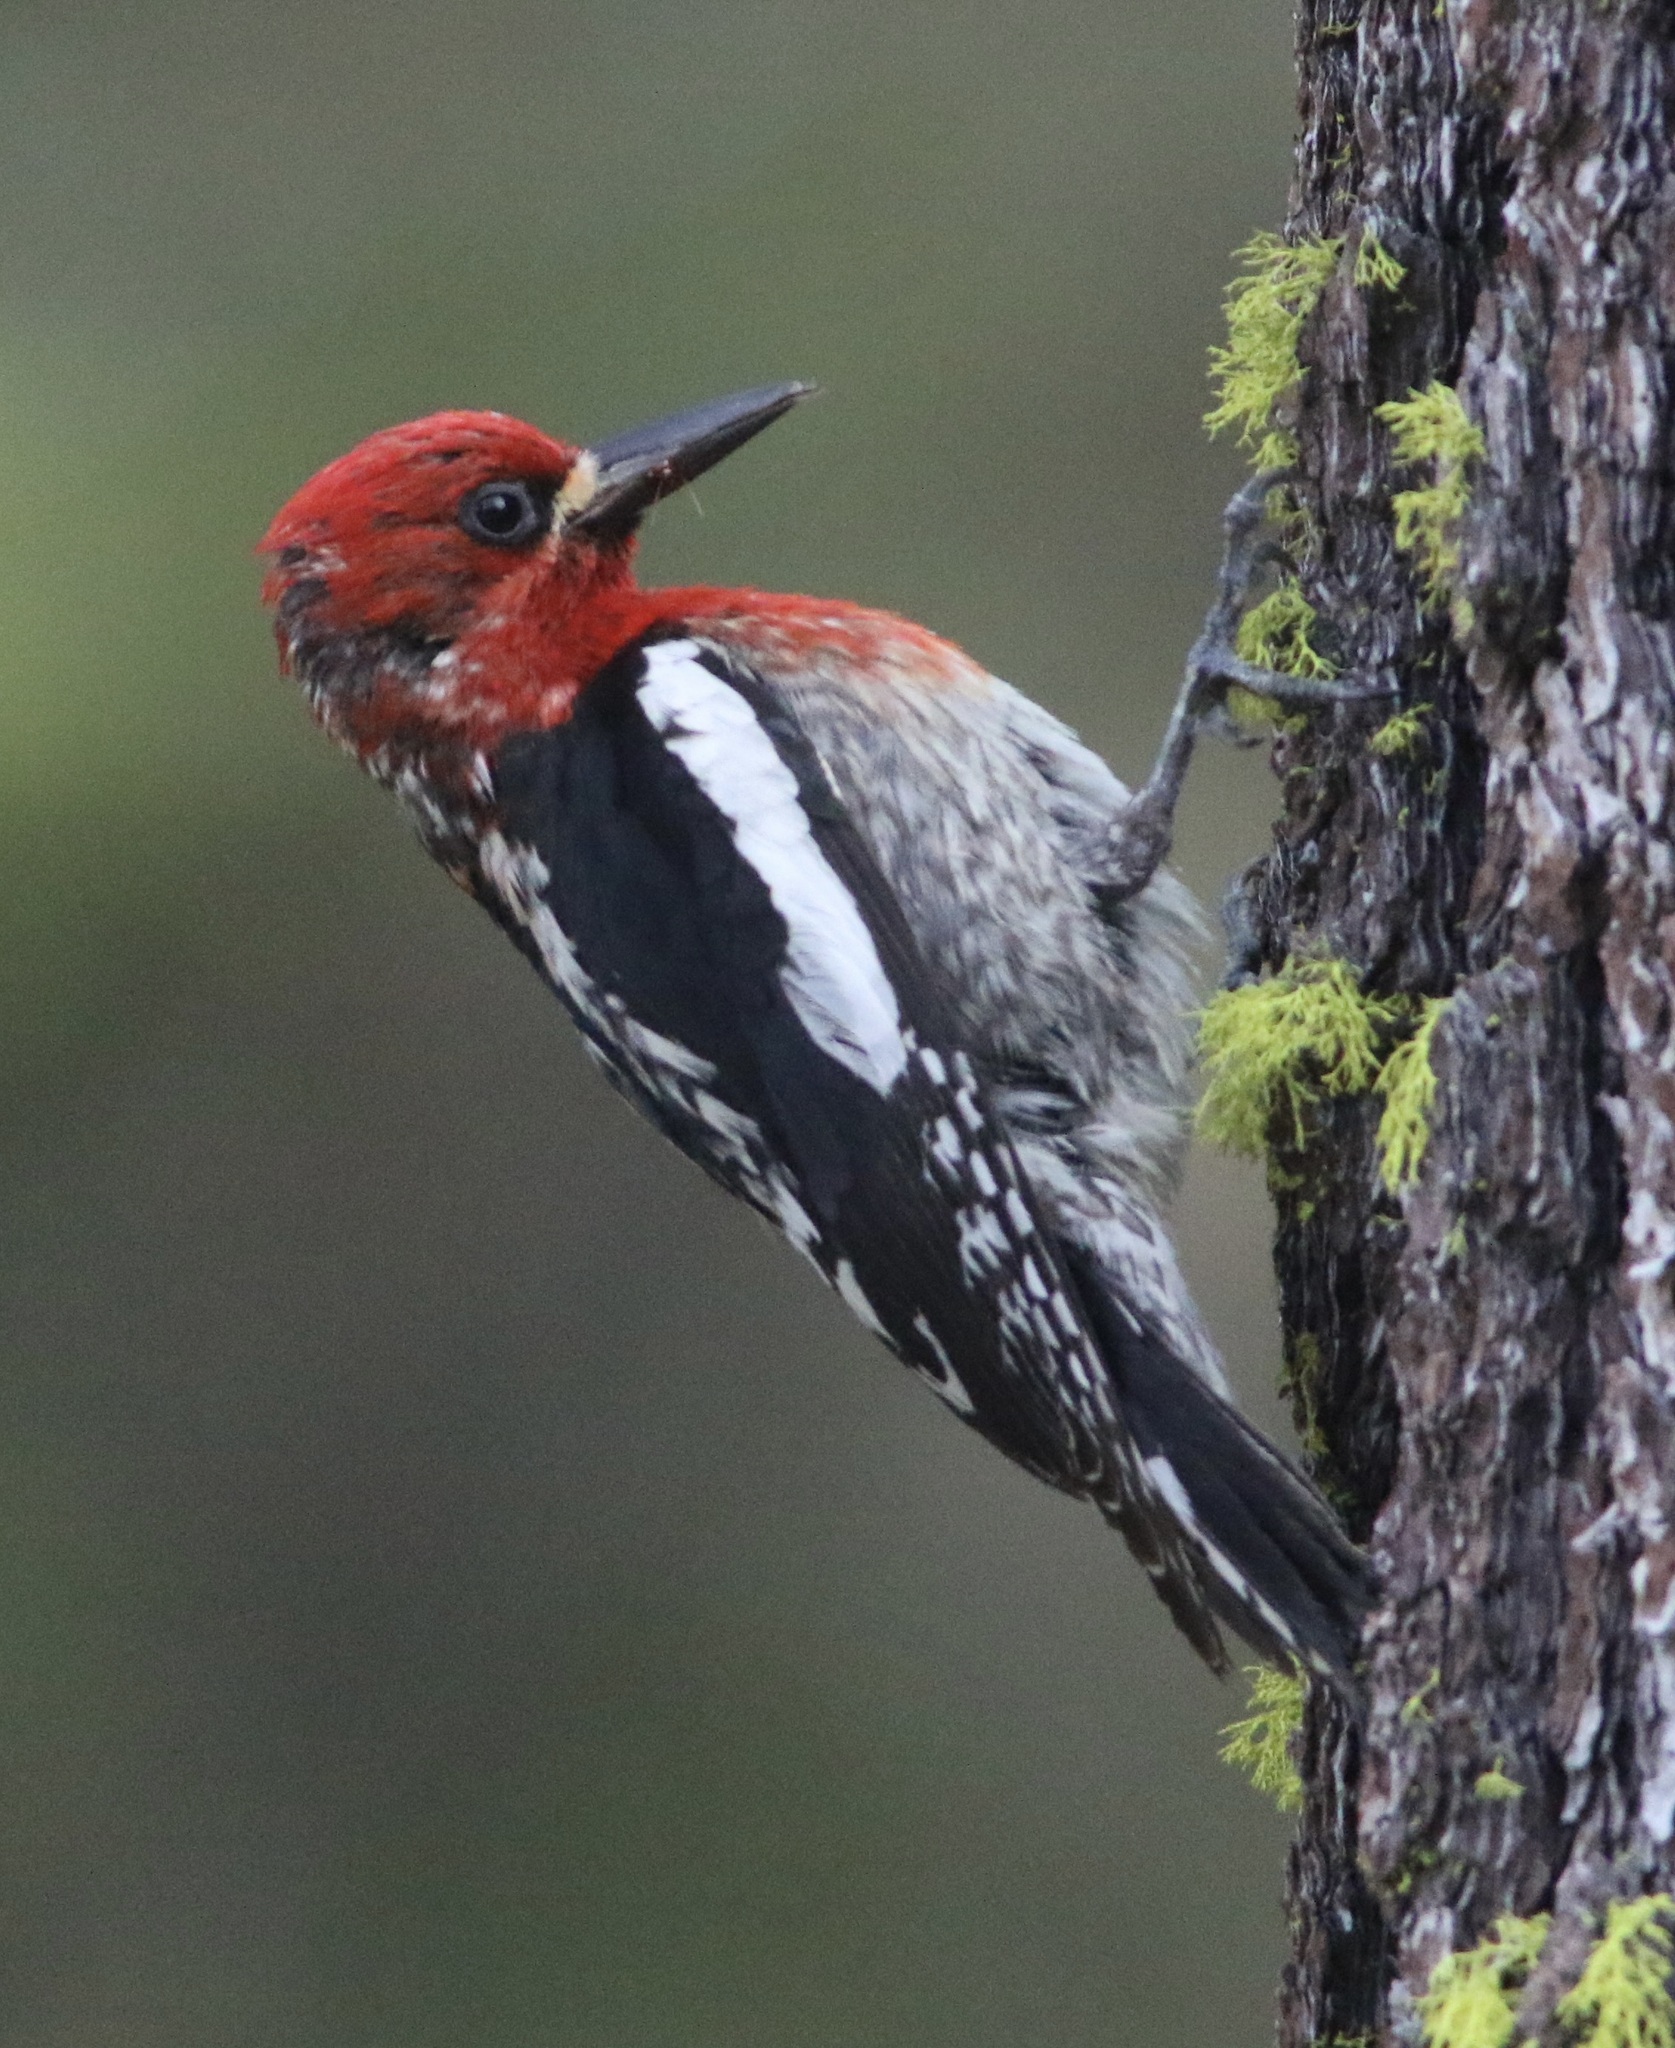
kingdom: Animalia
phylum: Chordata
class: Aves
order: Piciformes
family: Picidae
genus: Sphyrapicus
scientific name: Sphyrapicus ruber
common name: Red-breasted sapsucker
